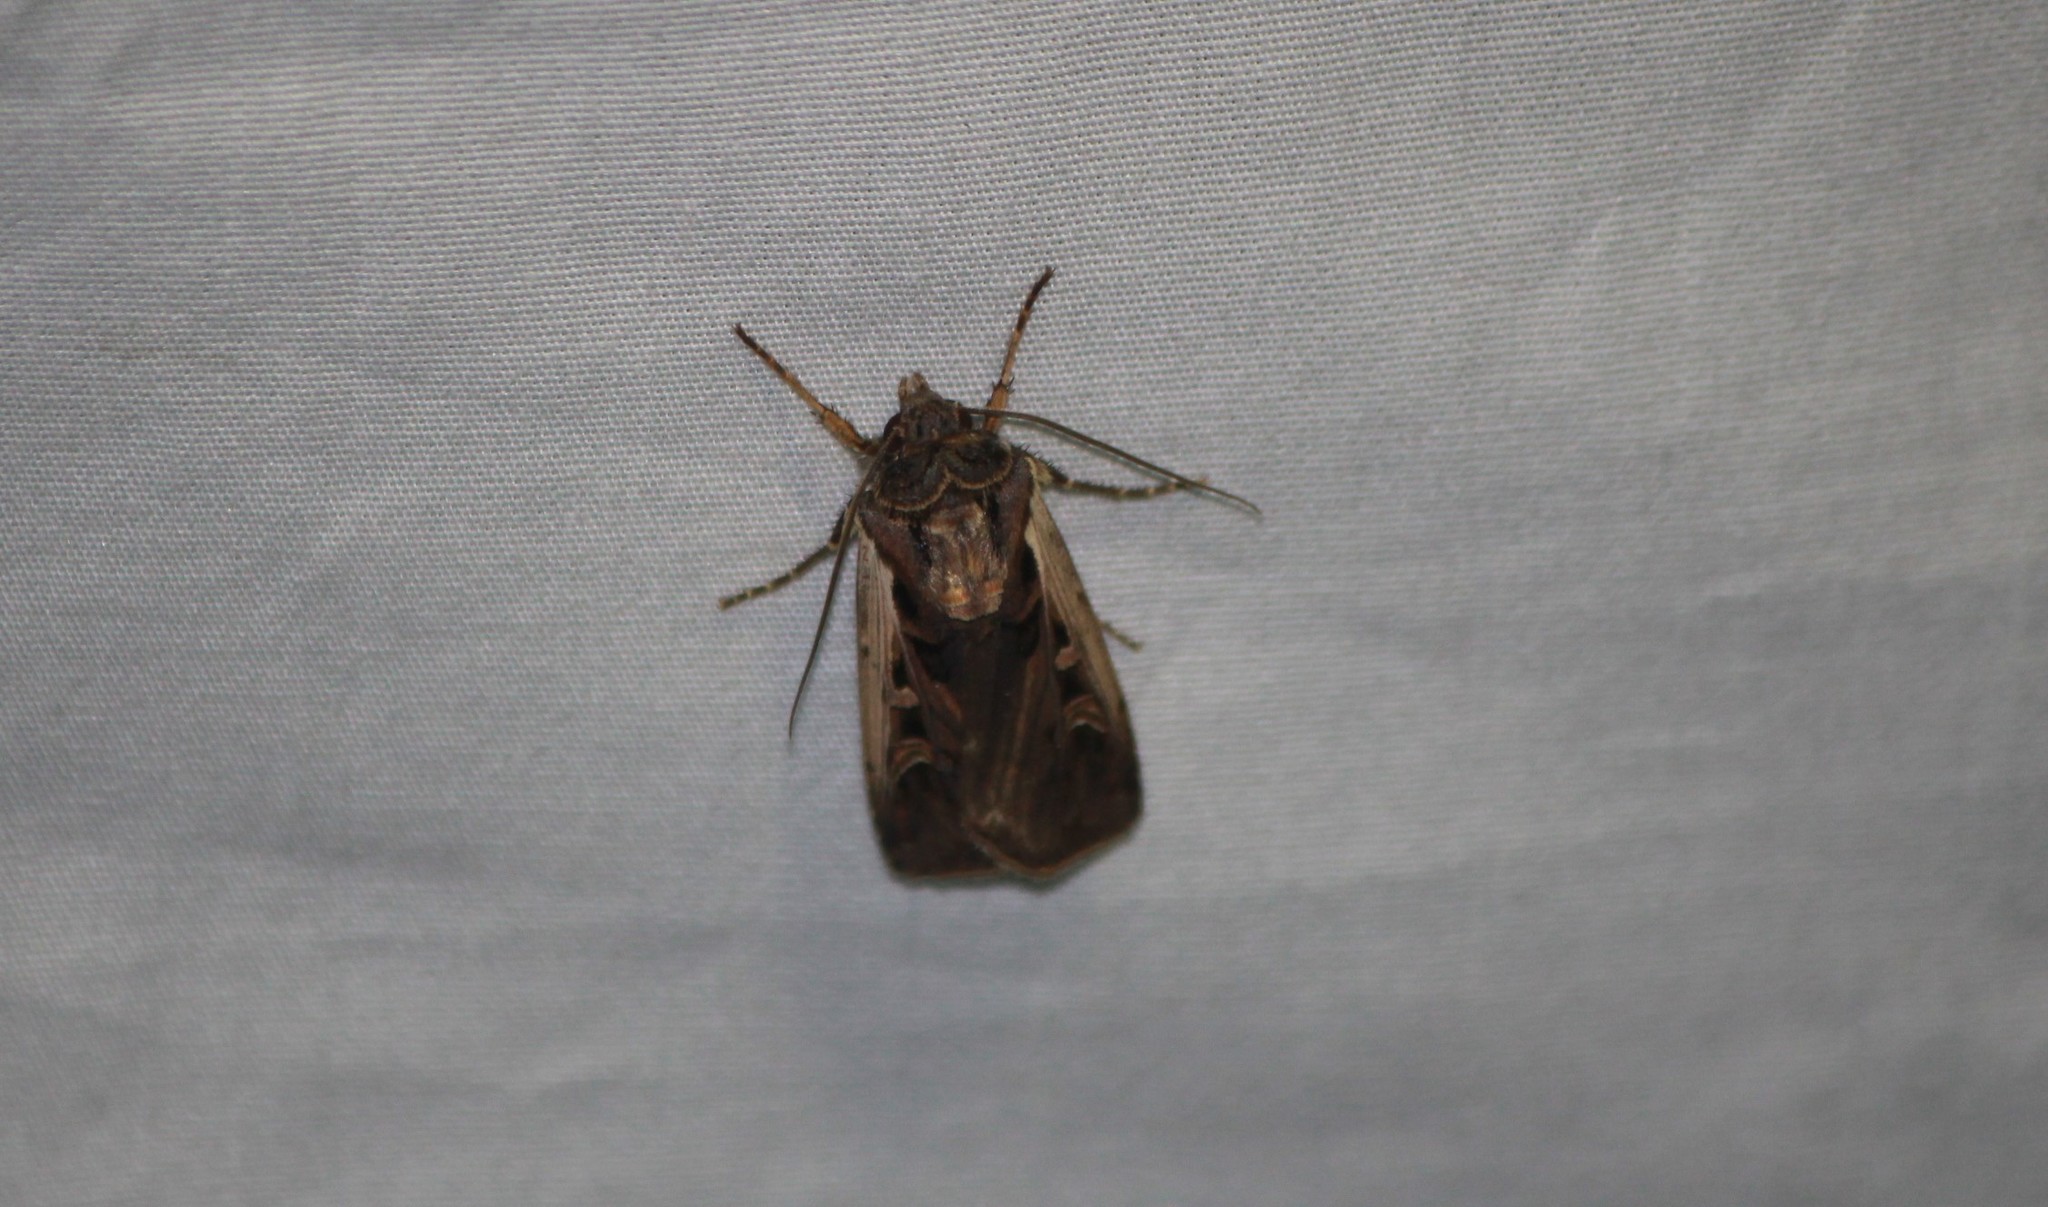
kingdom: Animalia
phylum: Arthropoda
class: Insecta
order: Lepidoptera
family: Noctuidae
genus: Striacosta
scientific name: Striacosta albicosta
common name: Western bean cutworm moth
